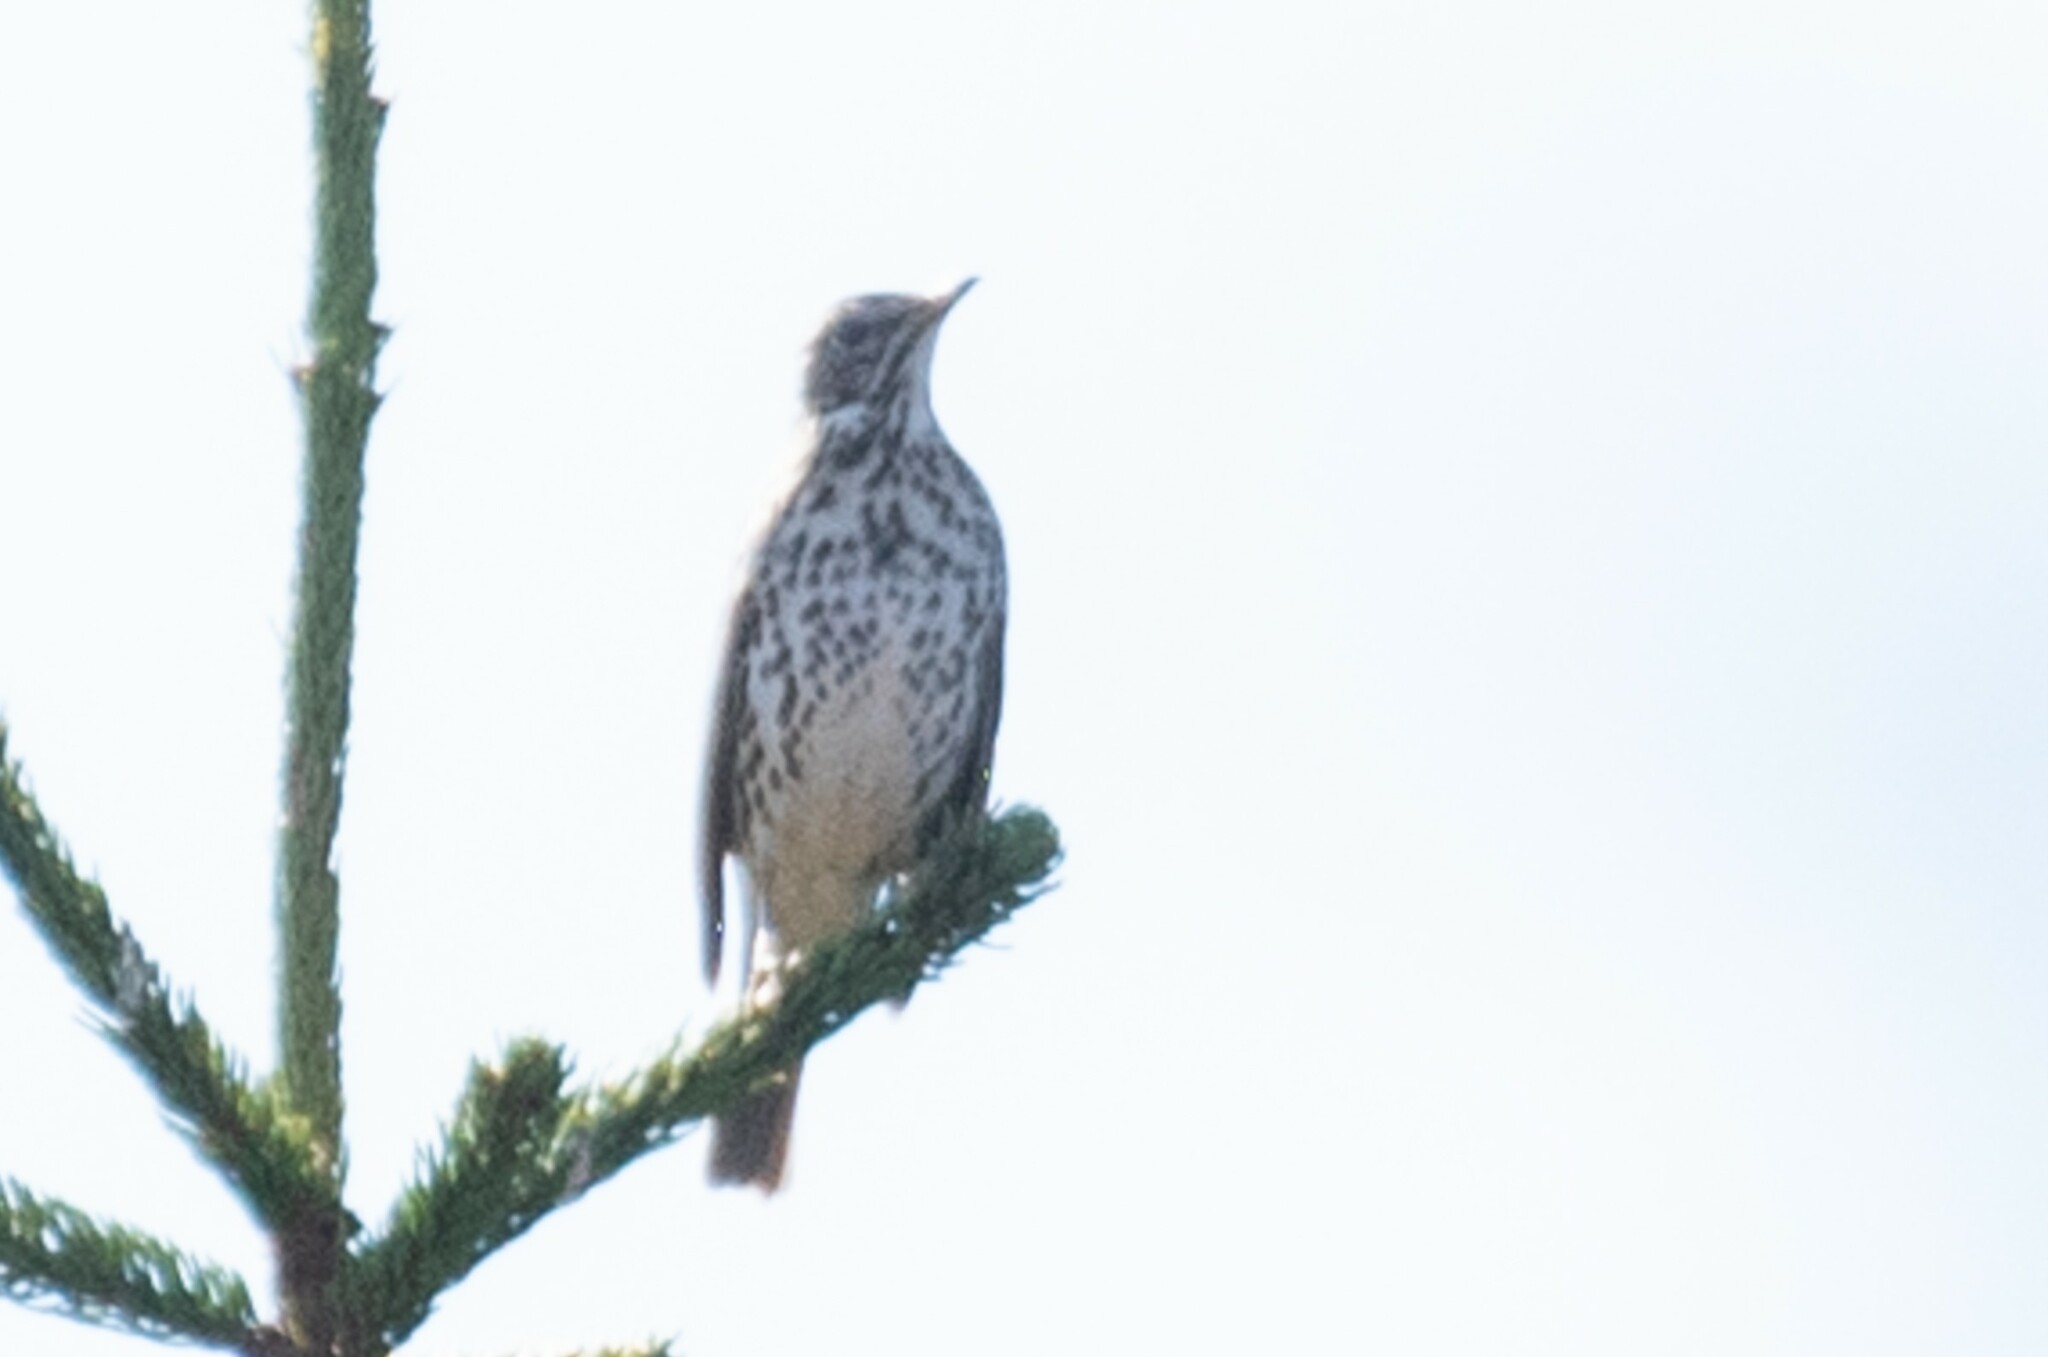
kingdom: Animalia
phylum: Chordata
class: Aves
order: Passeriformes
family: Turdidae
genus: Turdus
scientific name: Turdus philomelos
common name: Song thrush
